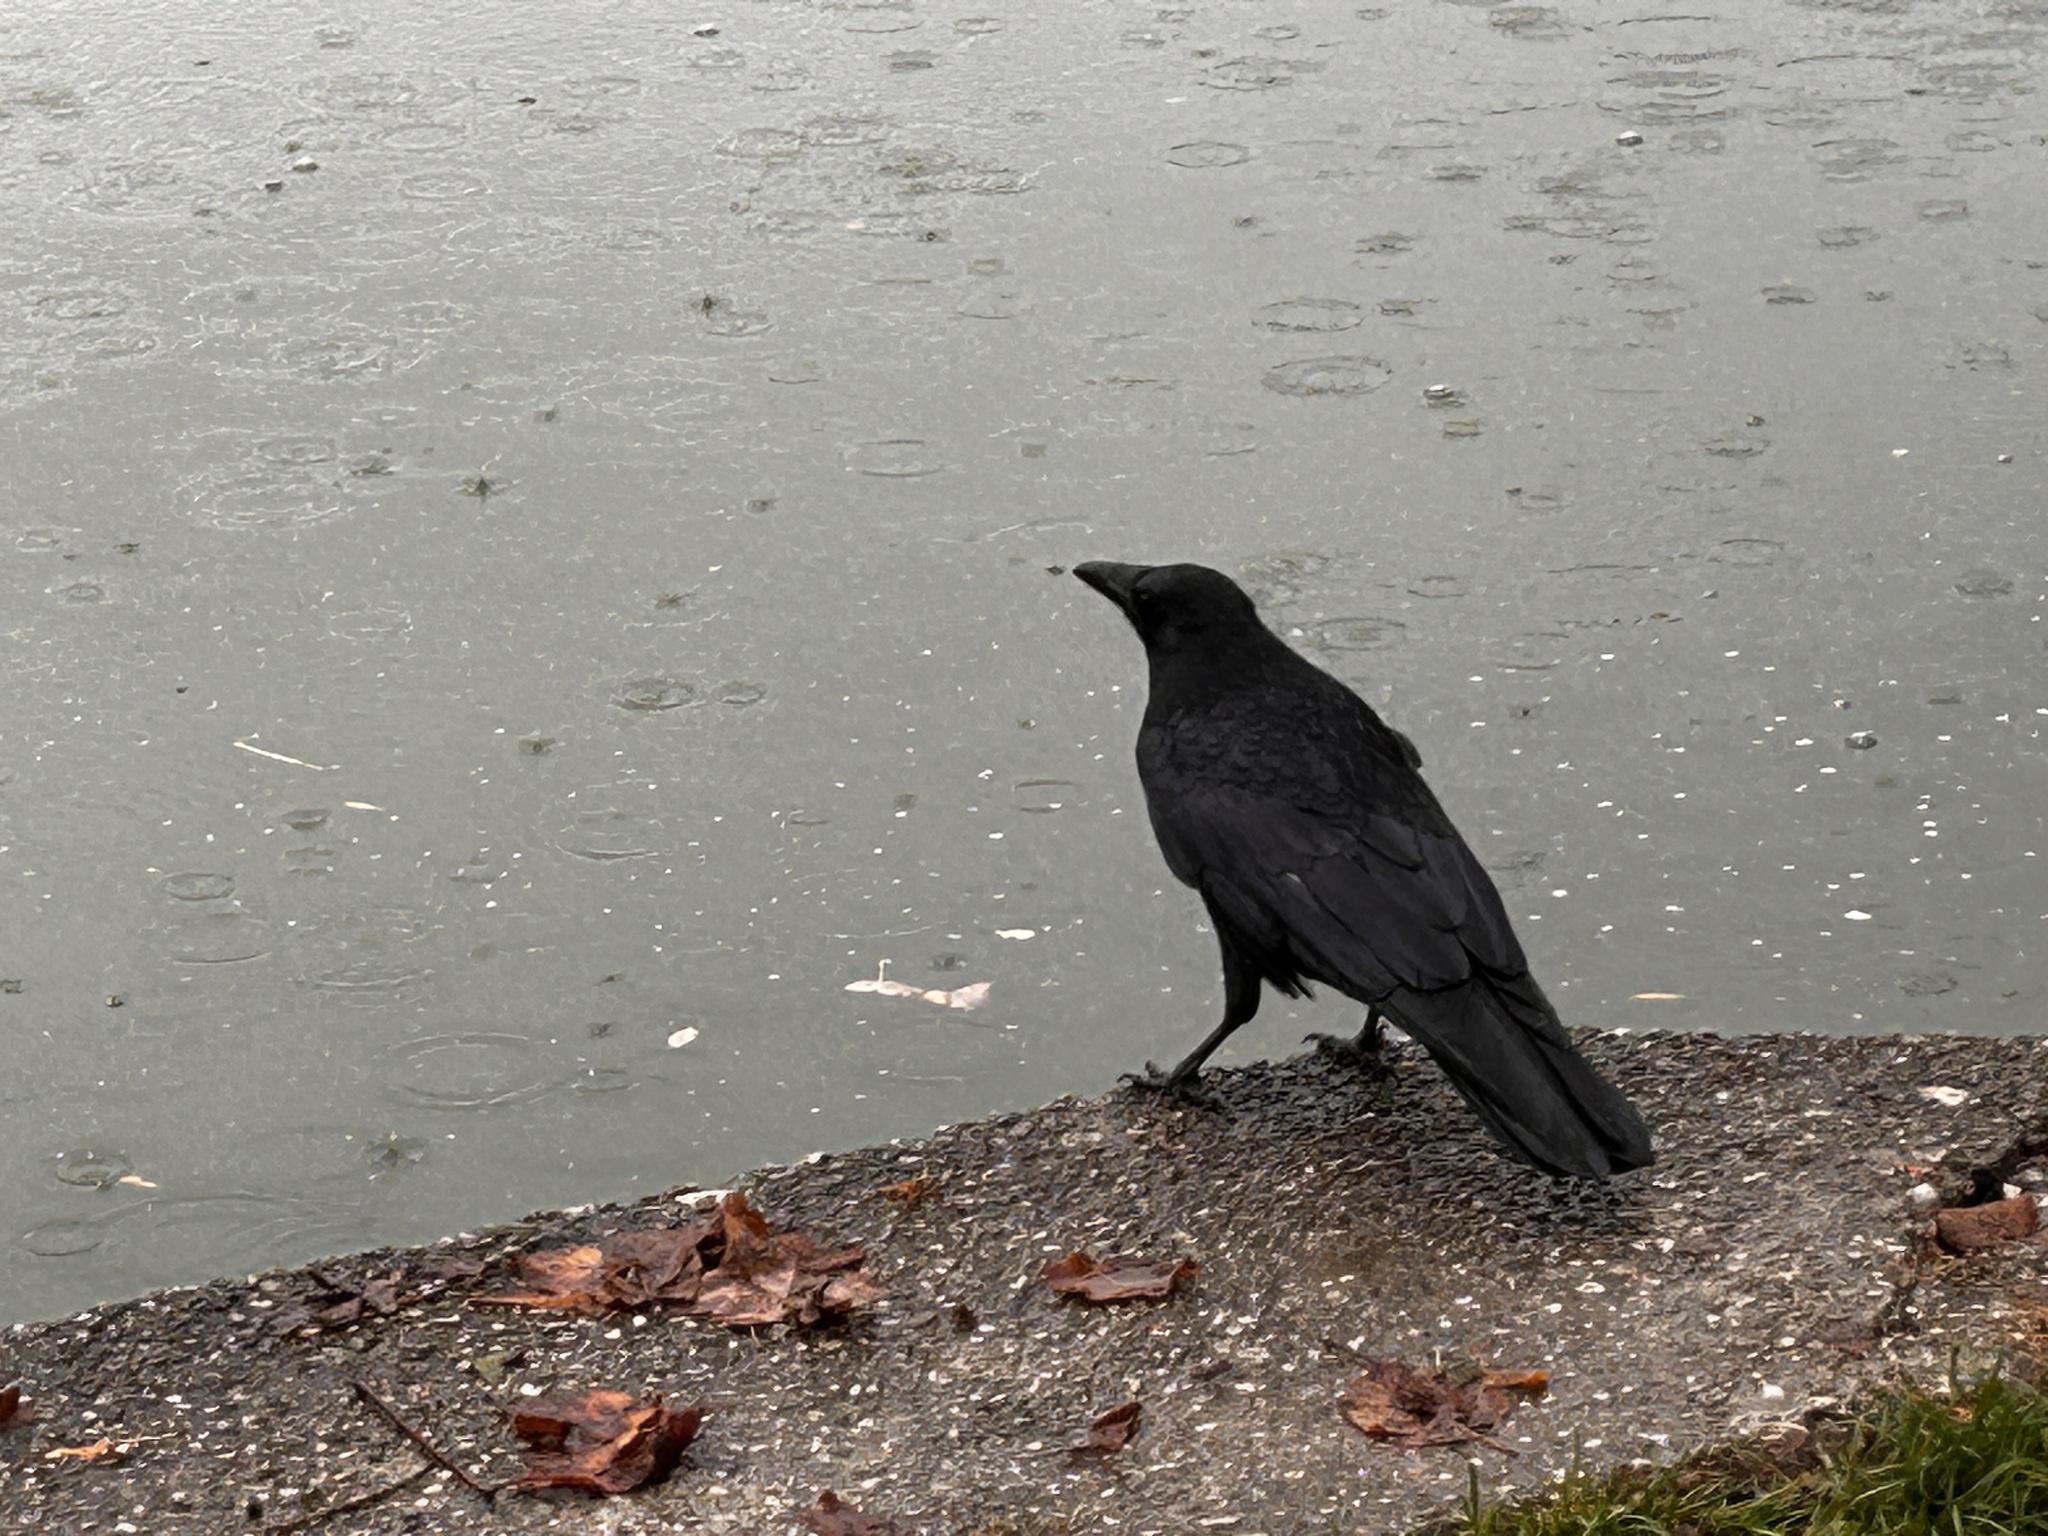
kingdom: Animalia
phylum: Chordata
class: Aves
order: Passeriformes
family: Corvidae
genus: Corvus
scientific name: Corvus corone
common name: Carrion crow
